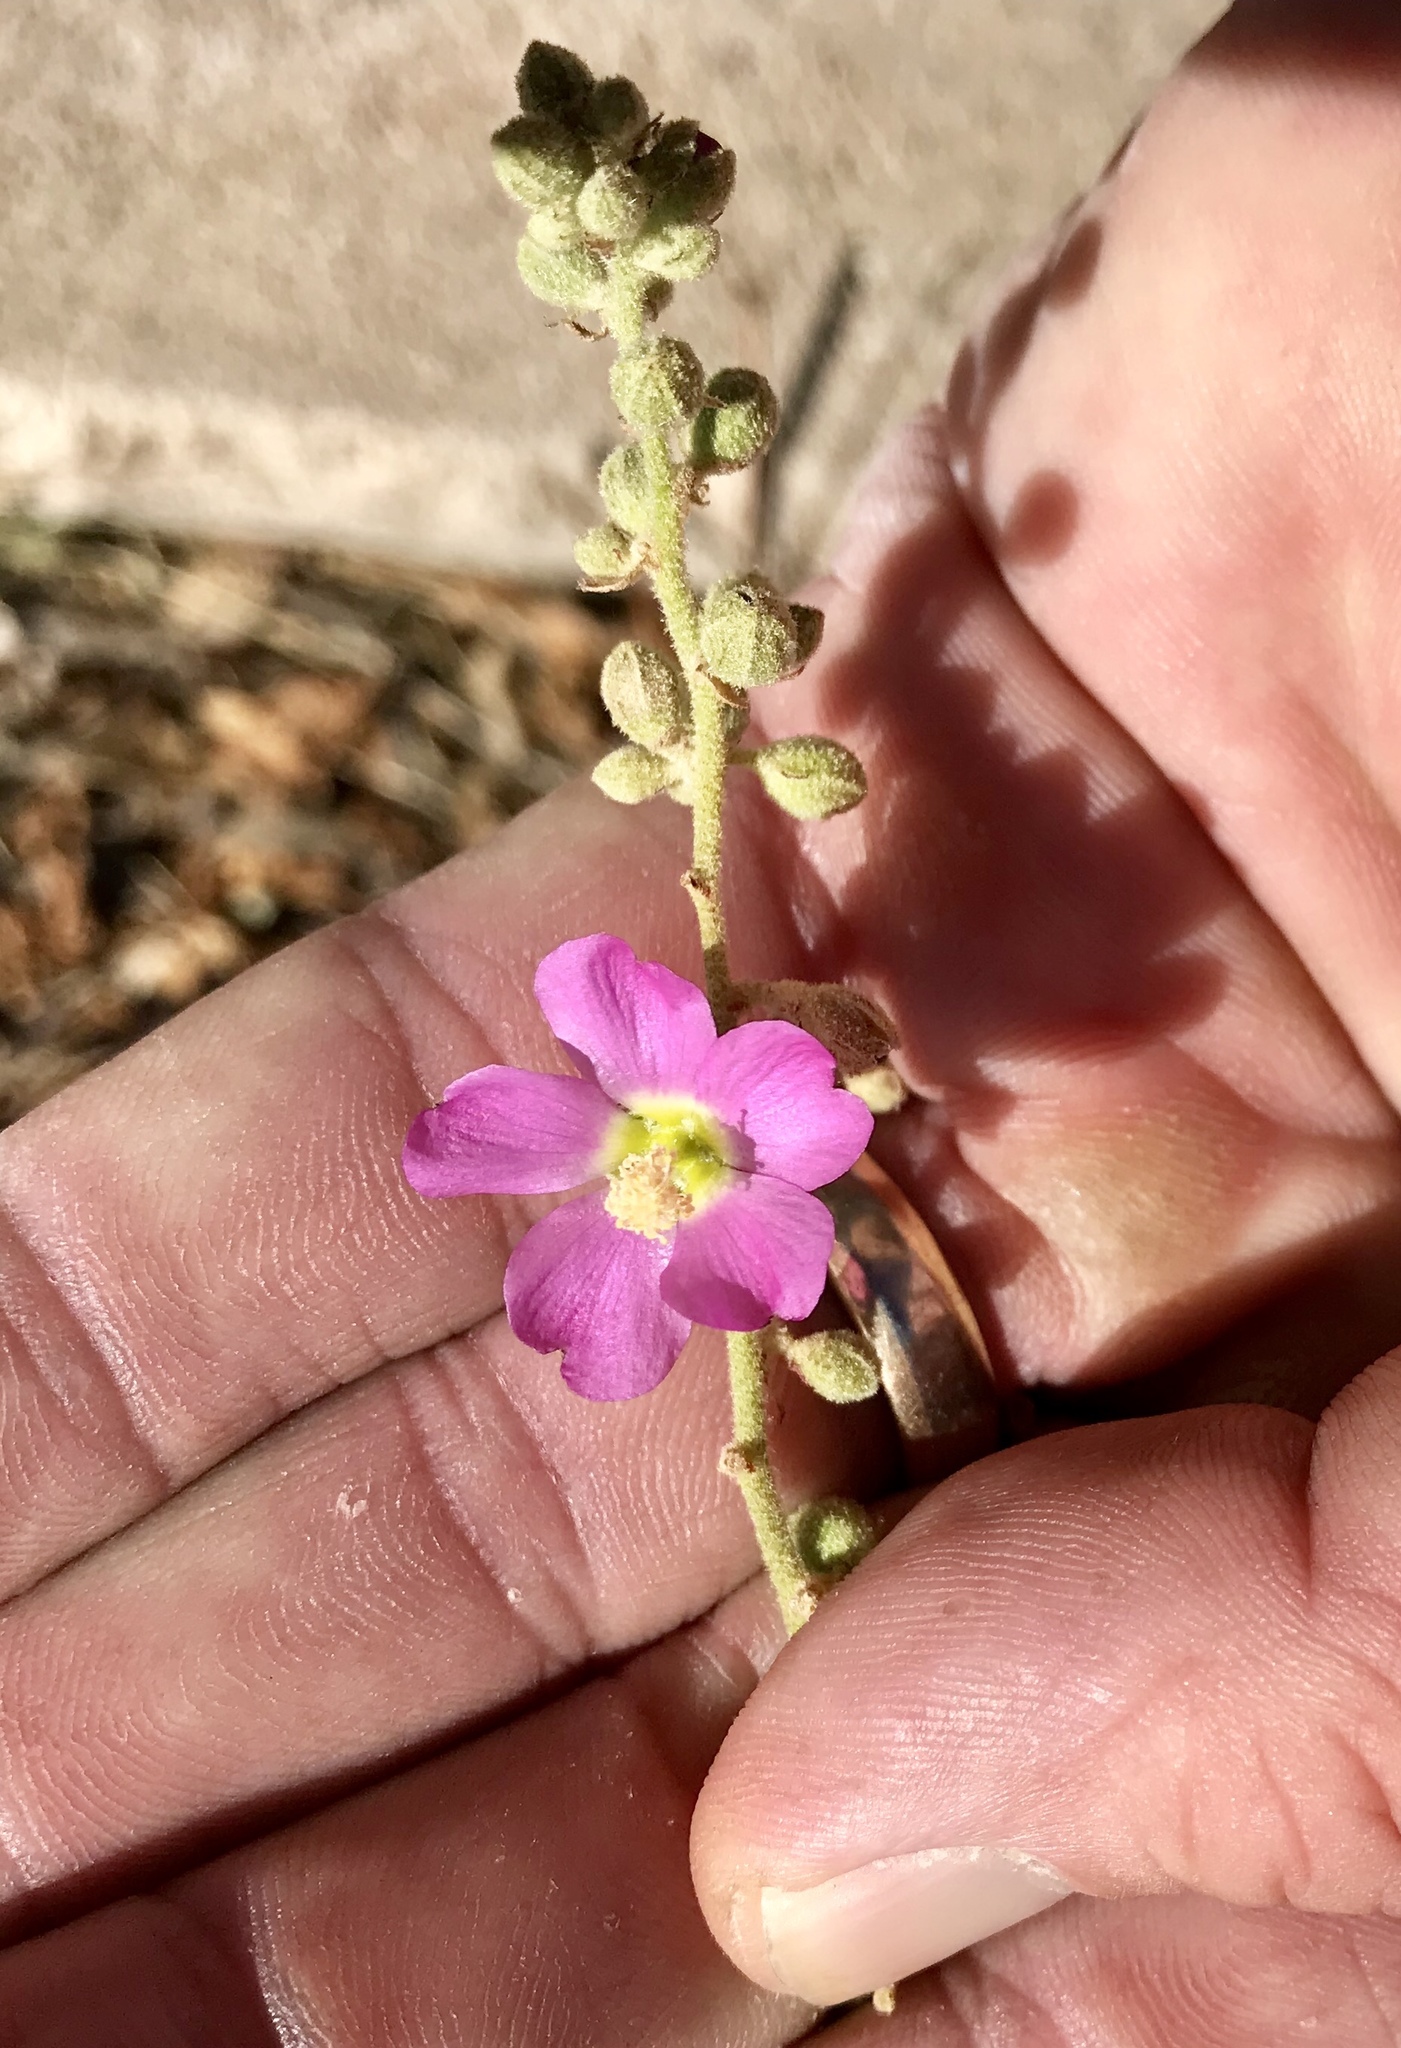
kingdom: Plantae
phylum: Tracheophyta
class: Magnoliopsida
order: Malvales
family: Malvaceae
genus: Sphaeralcea
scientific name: Sphaeralcea fendleri
